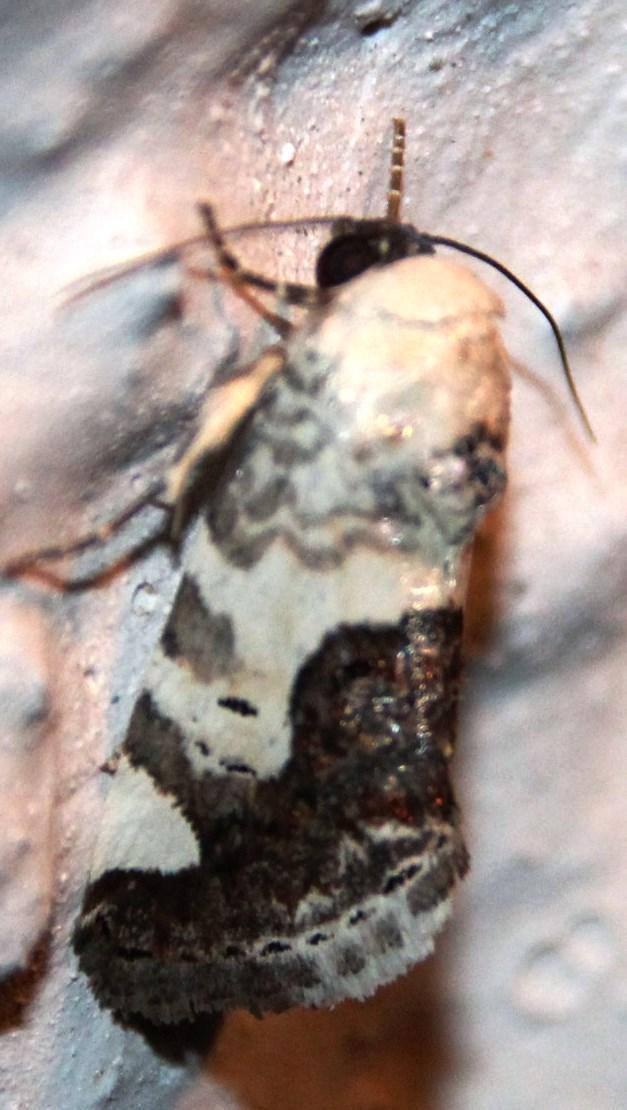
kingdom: Animalia
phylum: Arthropoda
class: Insecta
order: Lepidoptera
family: Noctuidae
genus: Acontia
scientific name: Acontia citripennis
